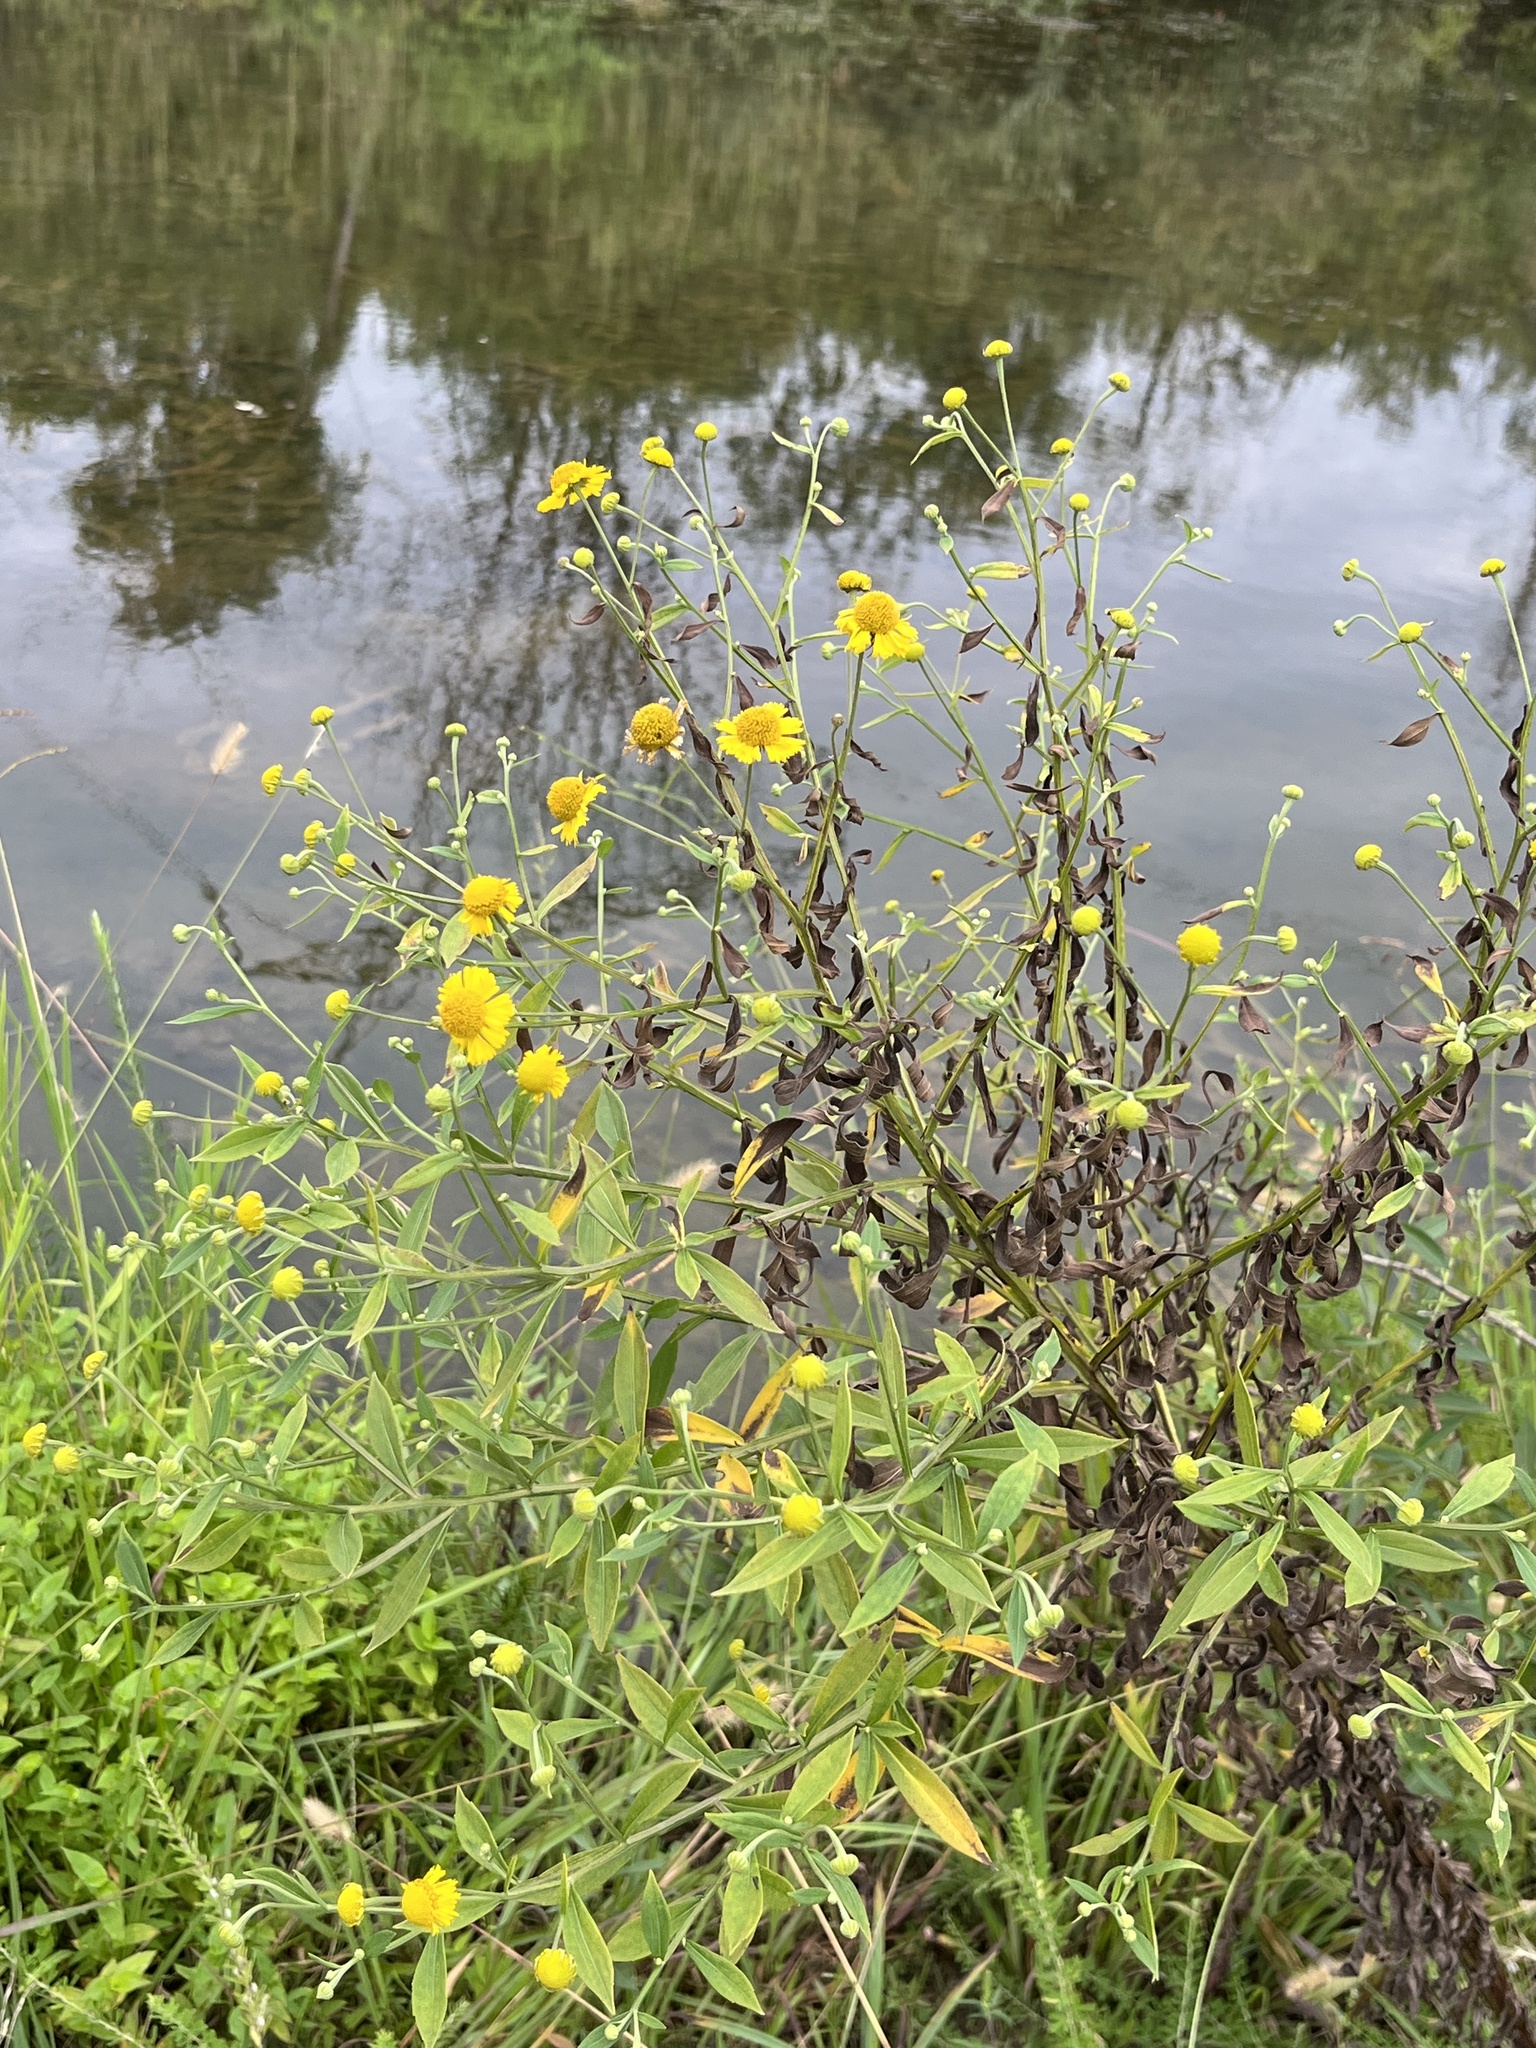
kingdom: Plantae
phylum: Tracheophyta
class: Magnoliopsida
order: Asterales
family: Asteraceae
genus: Helenium
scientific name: Helenium autumnale
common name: Sneezeweed
